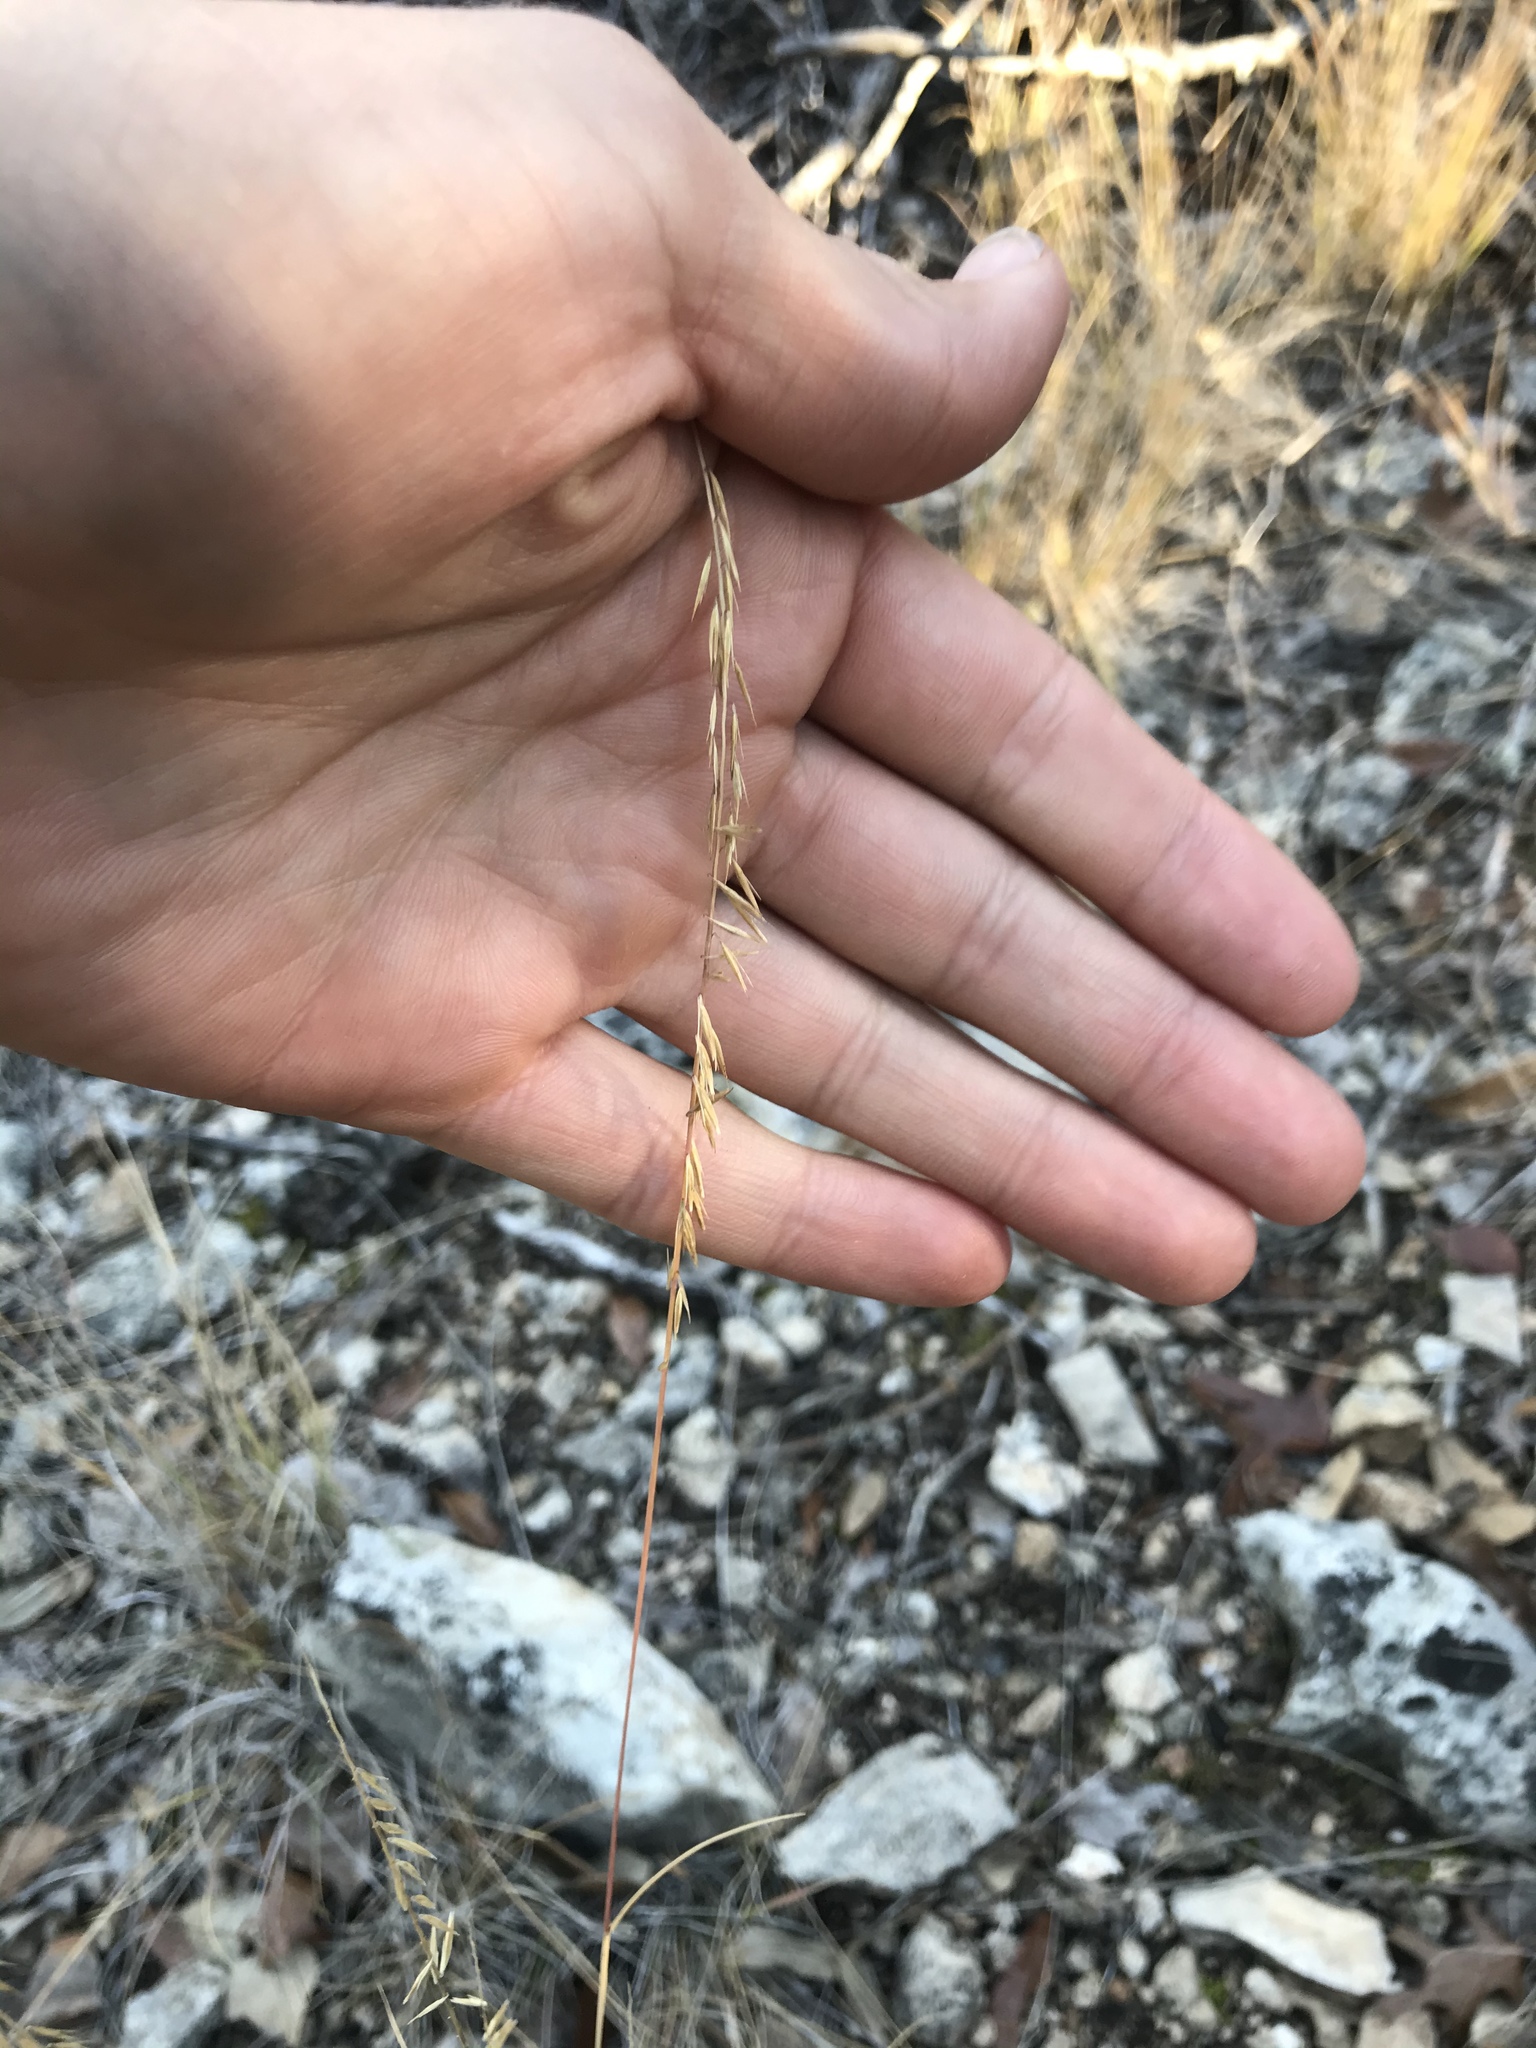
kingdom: Plantae
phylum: Tracheophyta
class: Liliopsida
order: Poales
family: Poaceae
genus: Bouteloua
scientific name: Bouteloua curtipendula
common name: Side-oats grama
